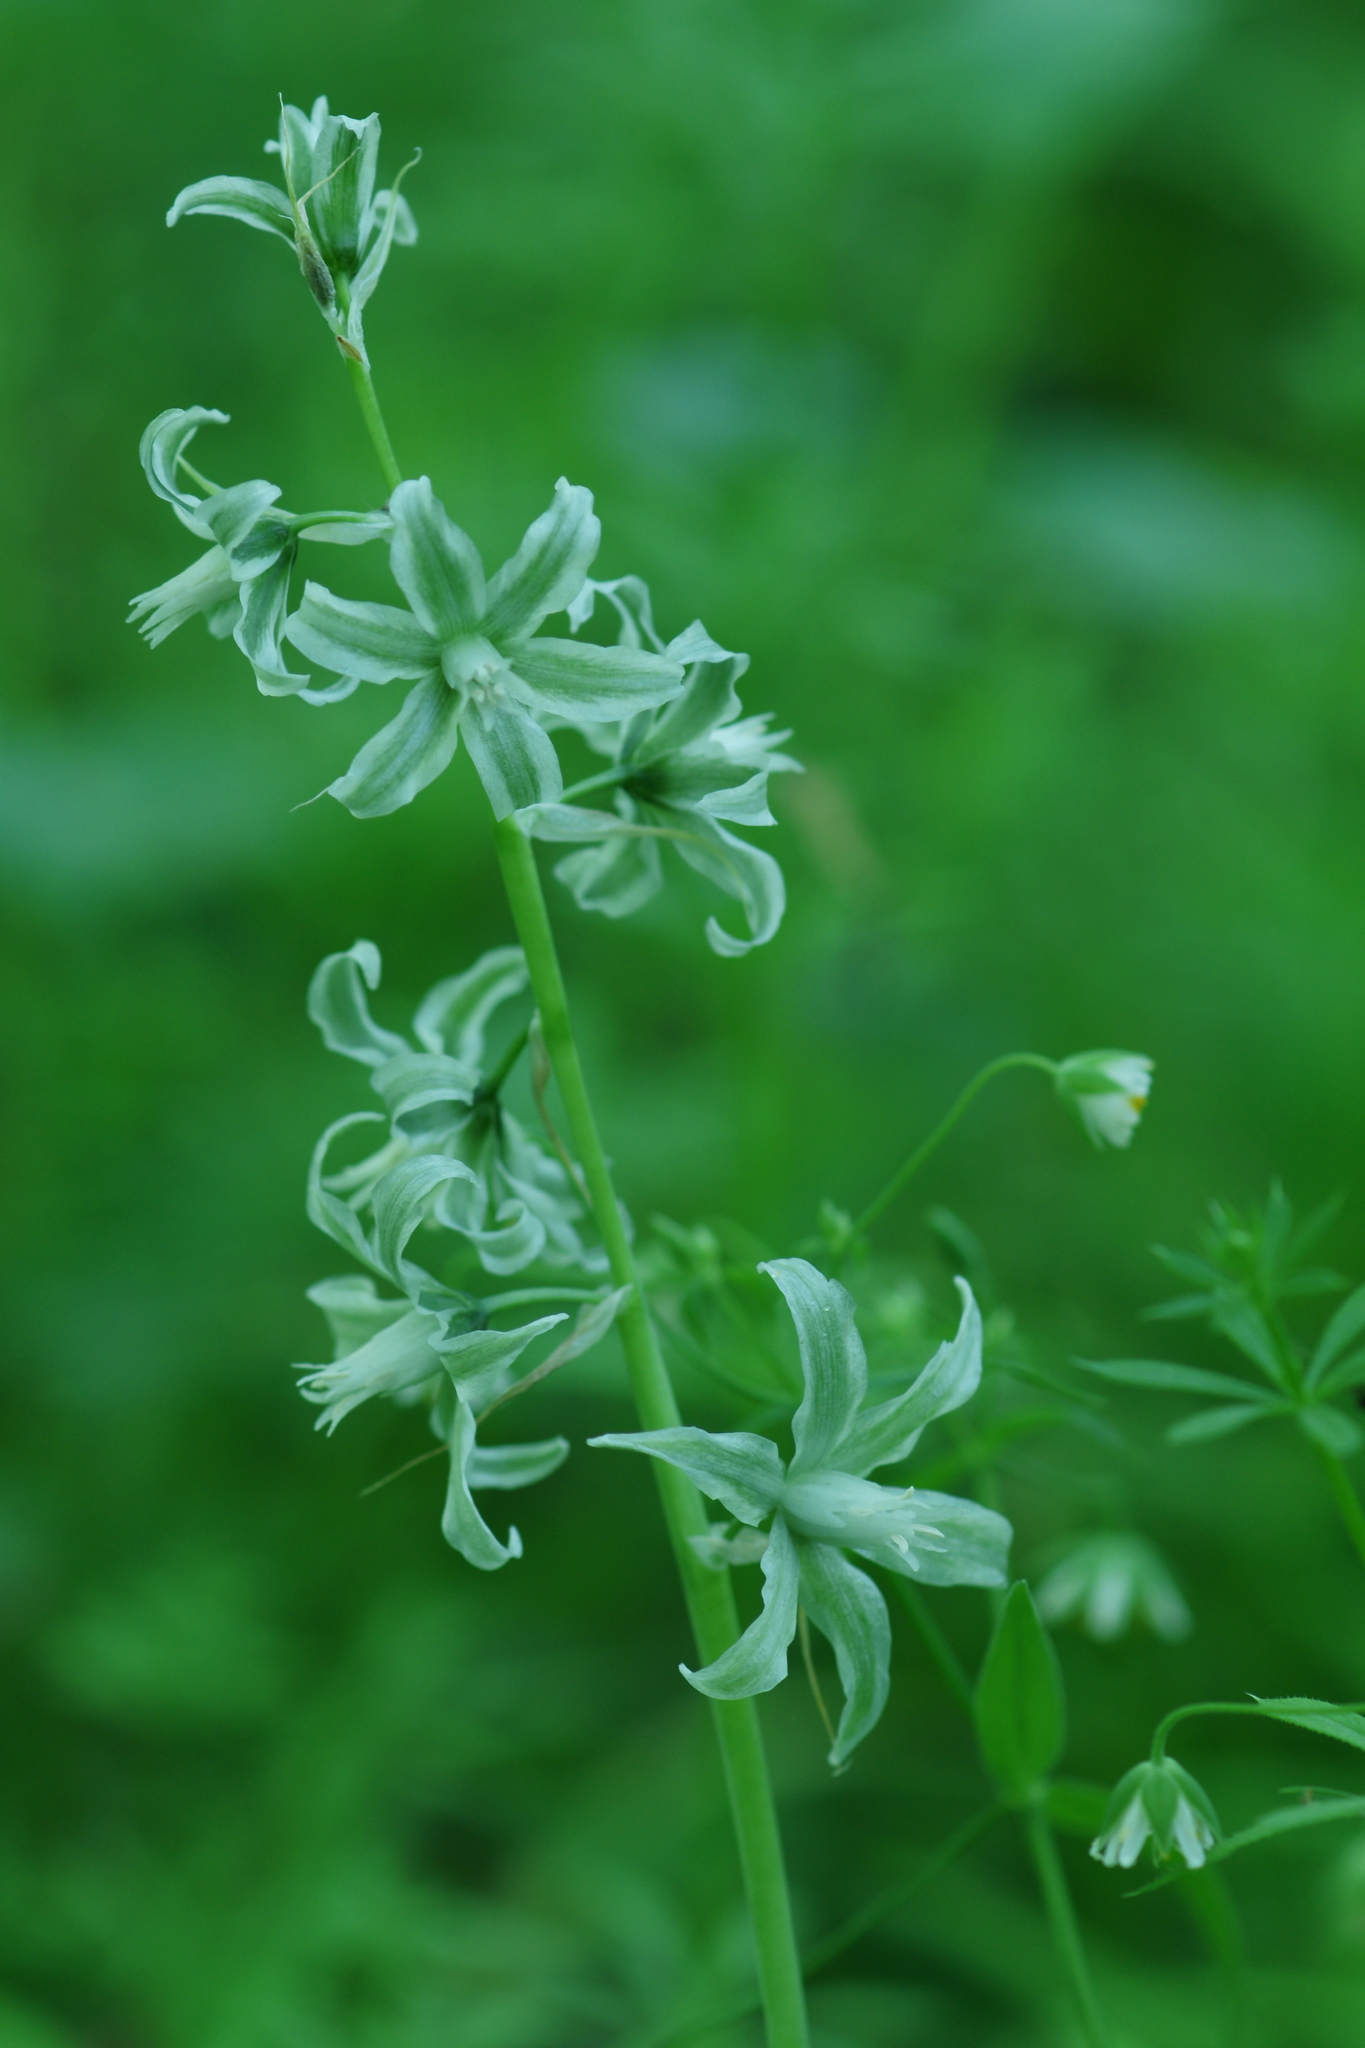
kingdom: Plantae
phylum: Tracheophyta
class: Liliopsida
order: Asparagales
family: Asparagaceae
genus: Ornithogalum
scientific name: Ornithogalum boucheanum
